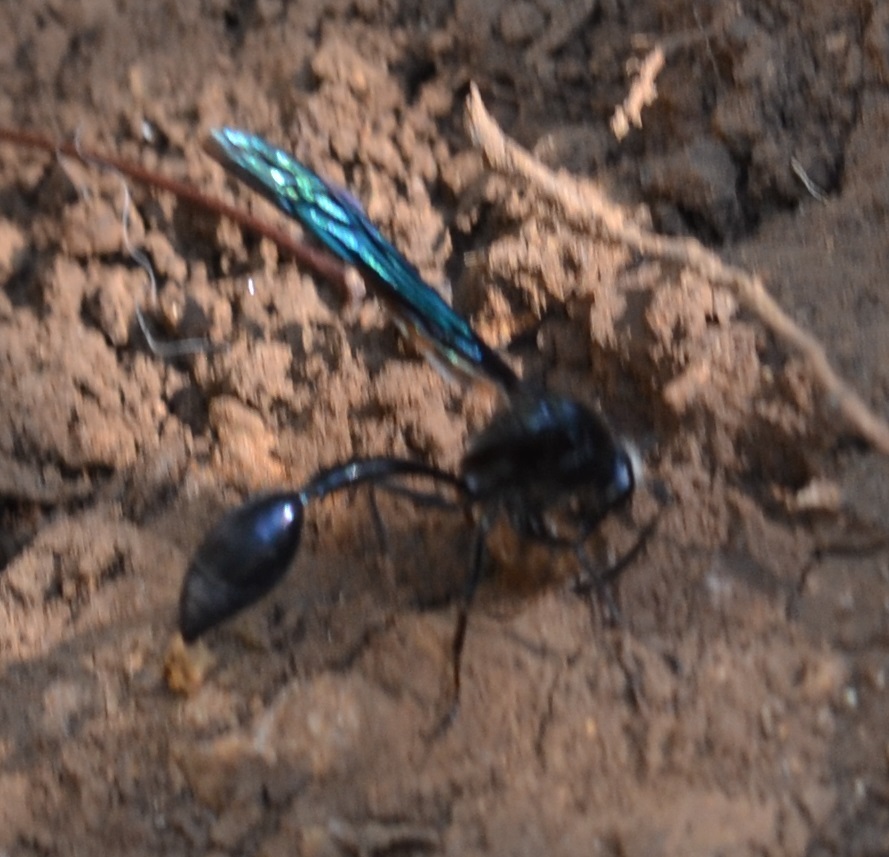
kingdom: Animalia
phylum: Arthropoda
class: Insecta
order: Hymenoptera
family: Eumenidae
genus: Phimenes
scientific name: Phimenes curvatus
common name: Black delta vespid wasp
